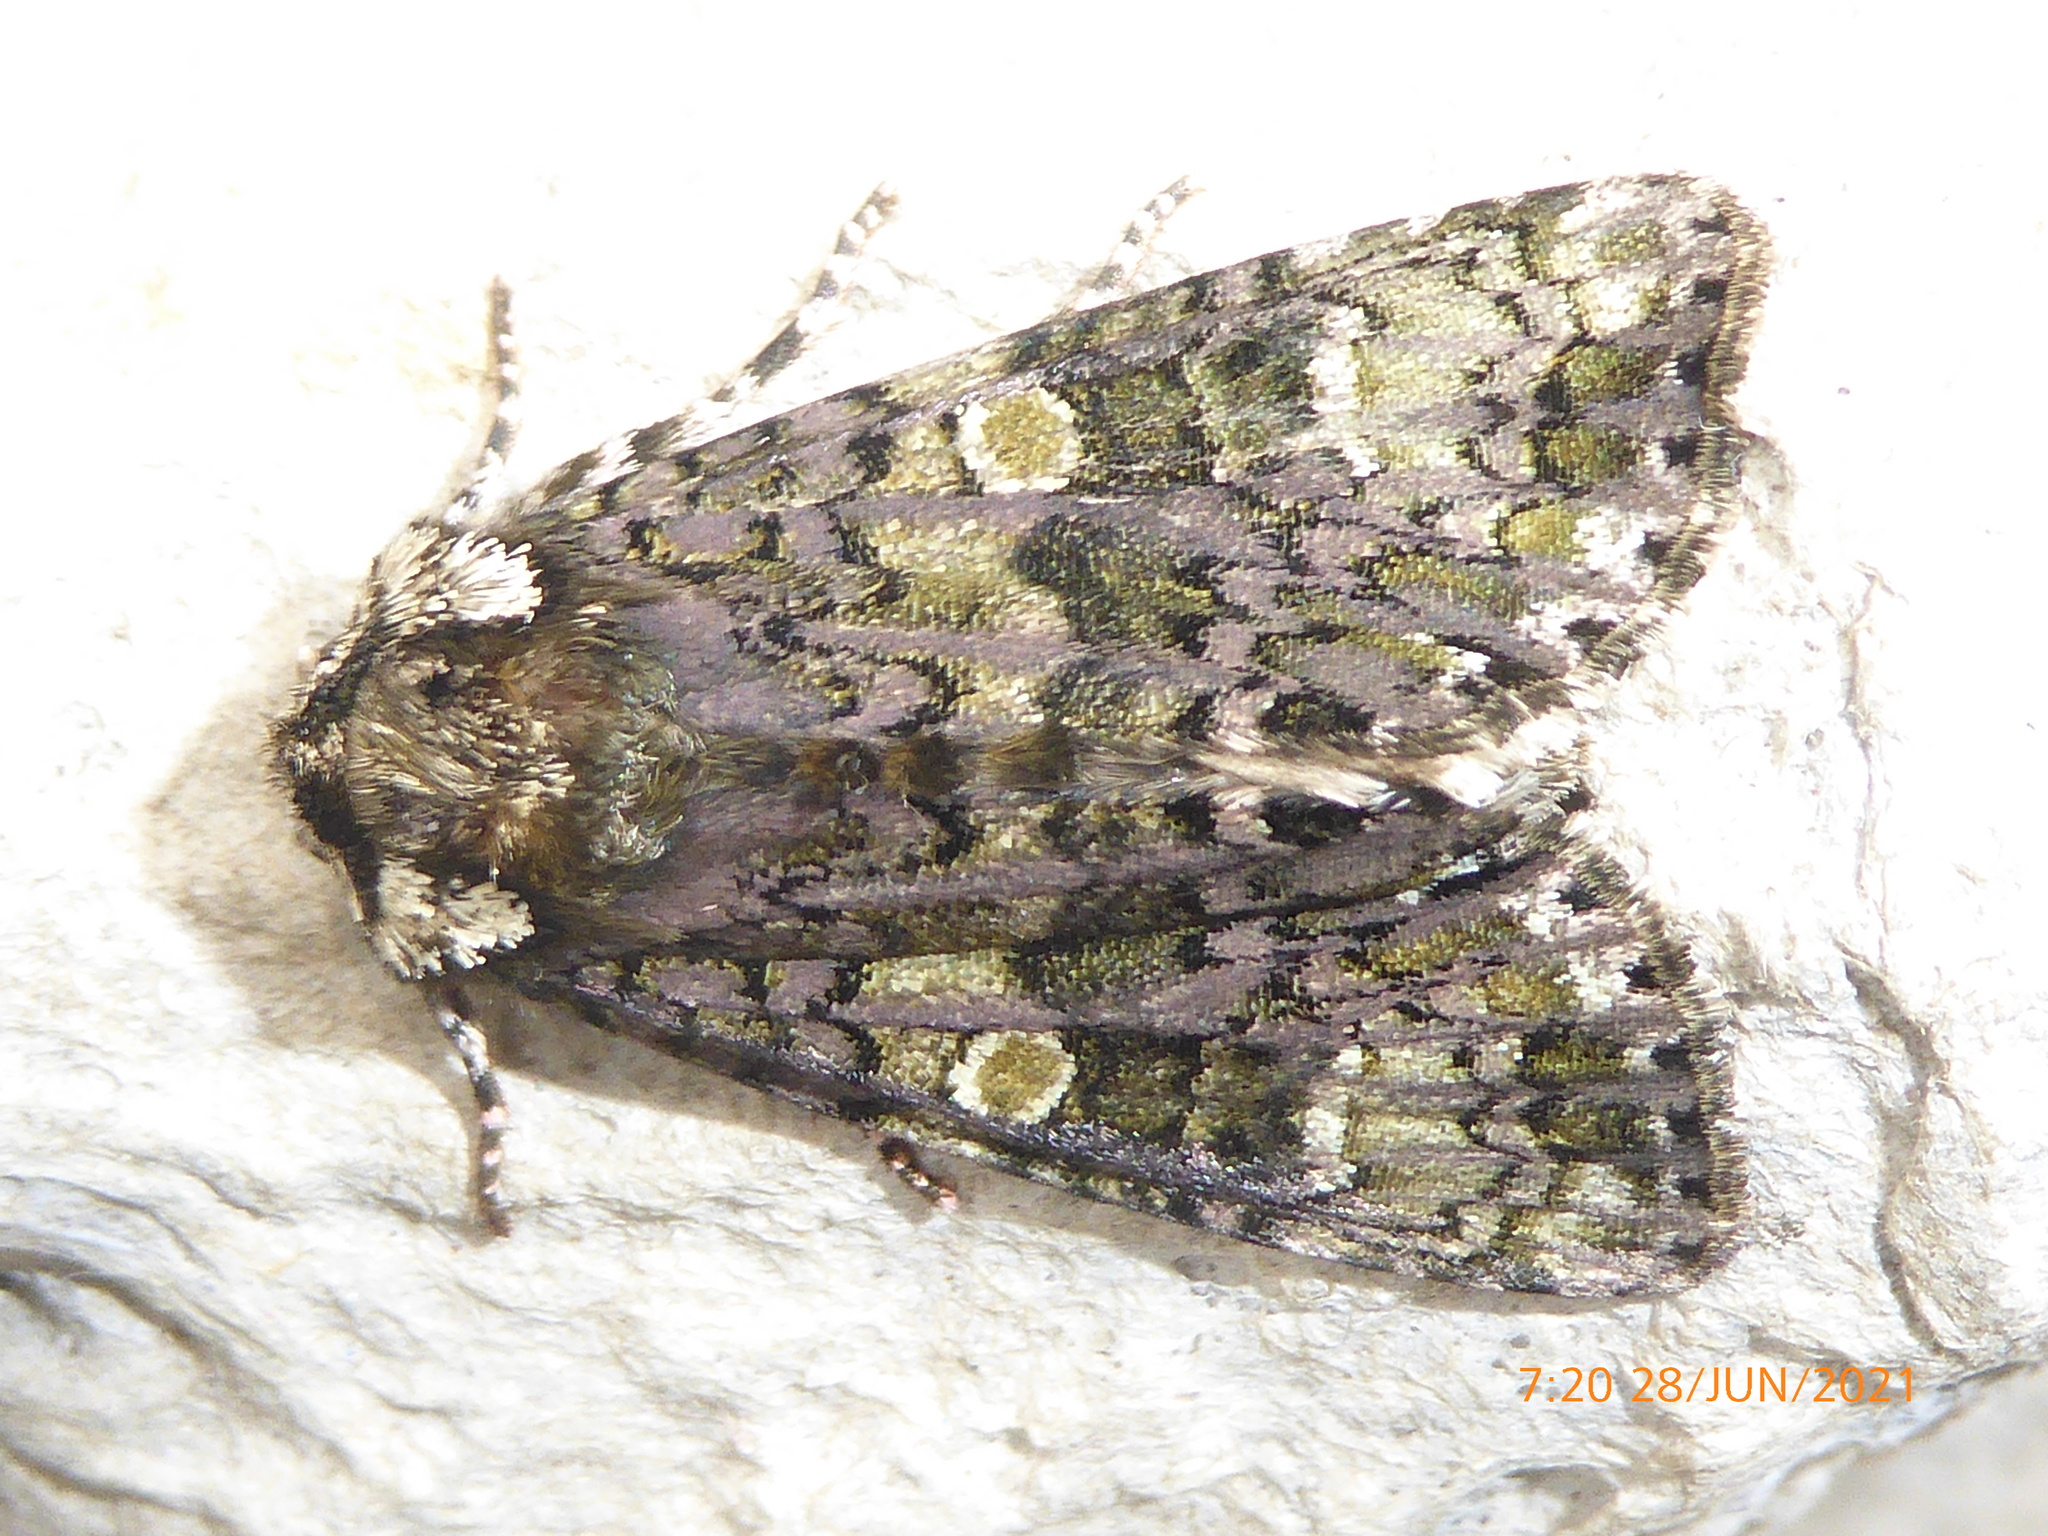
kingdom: Animalia
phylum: Arthropoda
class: Insecta
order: Lepidoptera
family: Noctuidae
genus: Craniophora
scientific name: Craniophora ligustri
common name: Coronet
